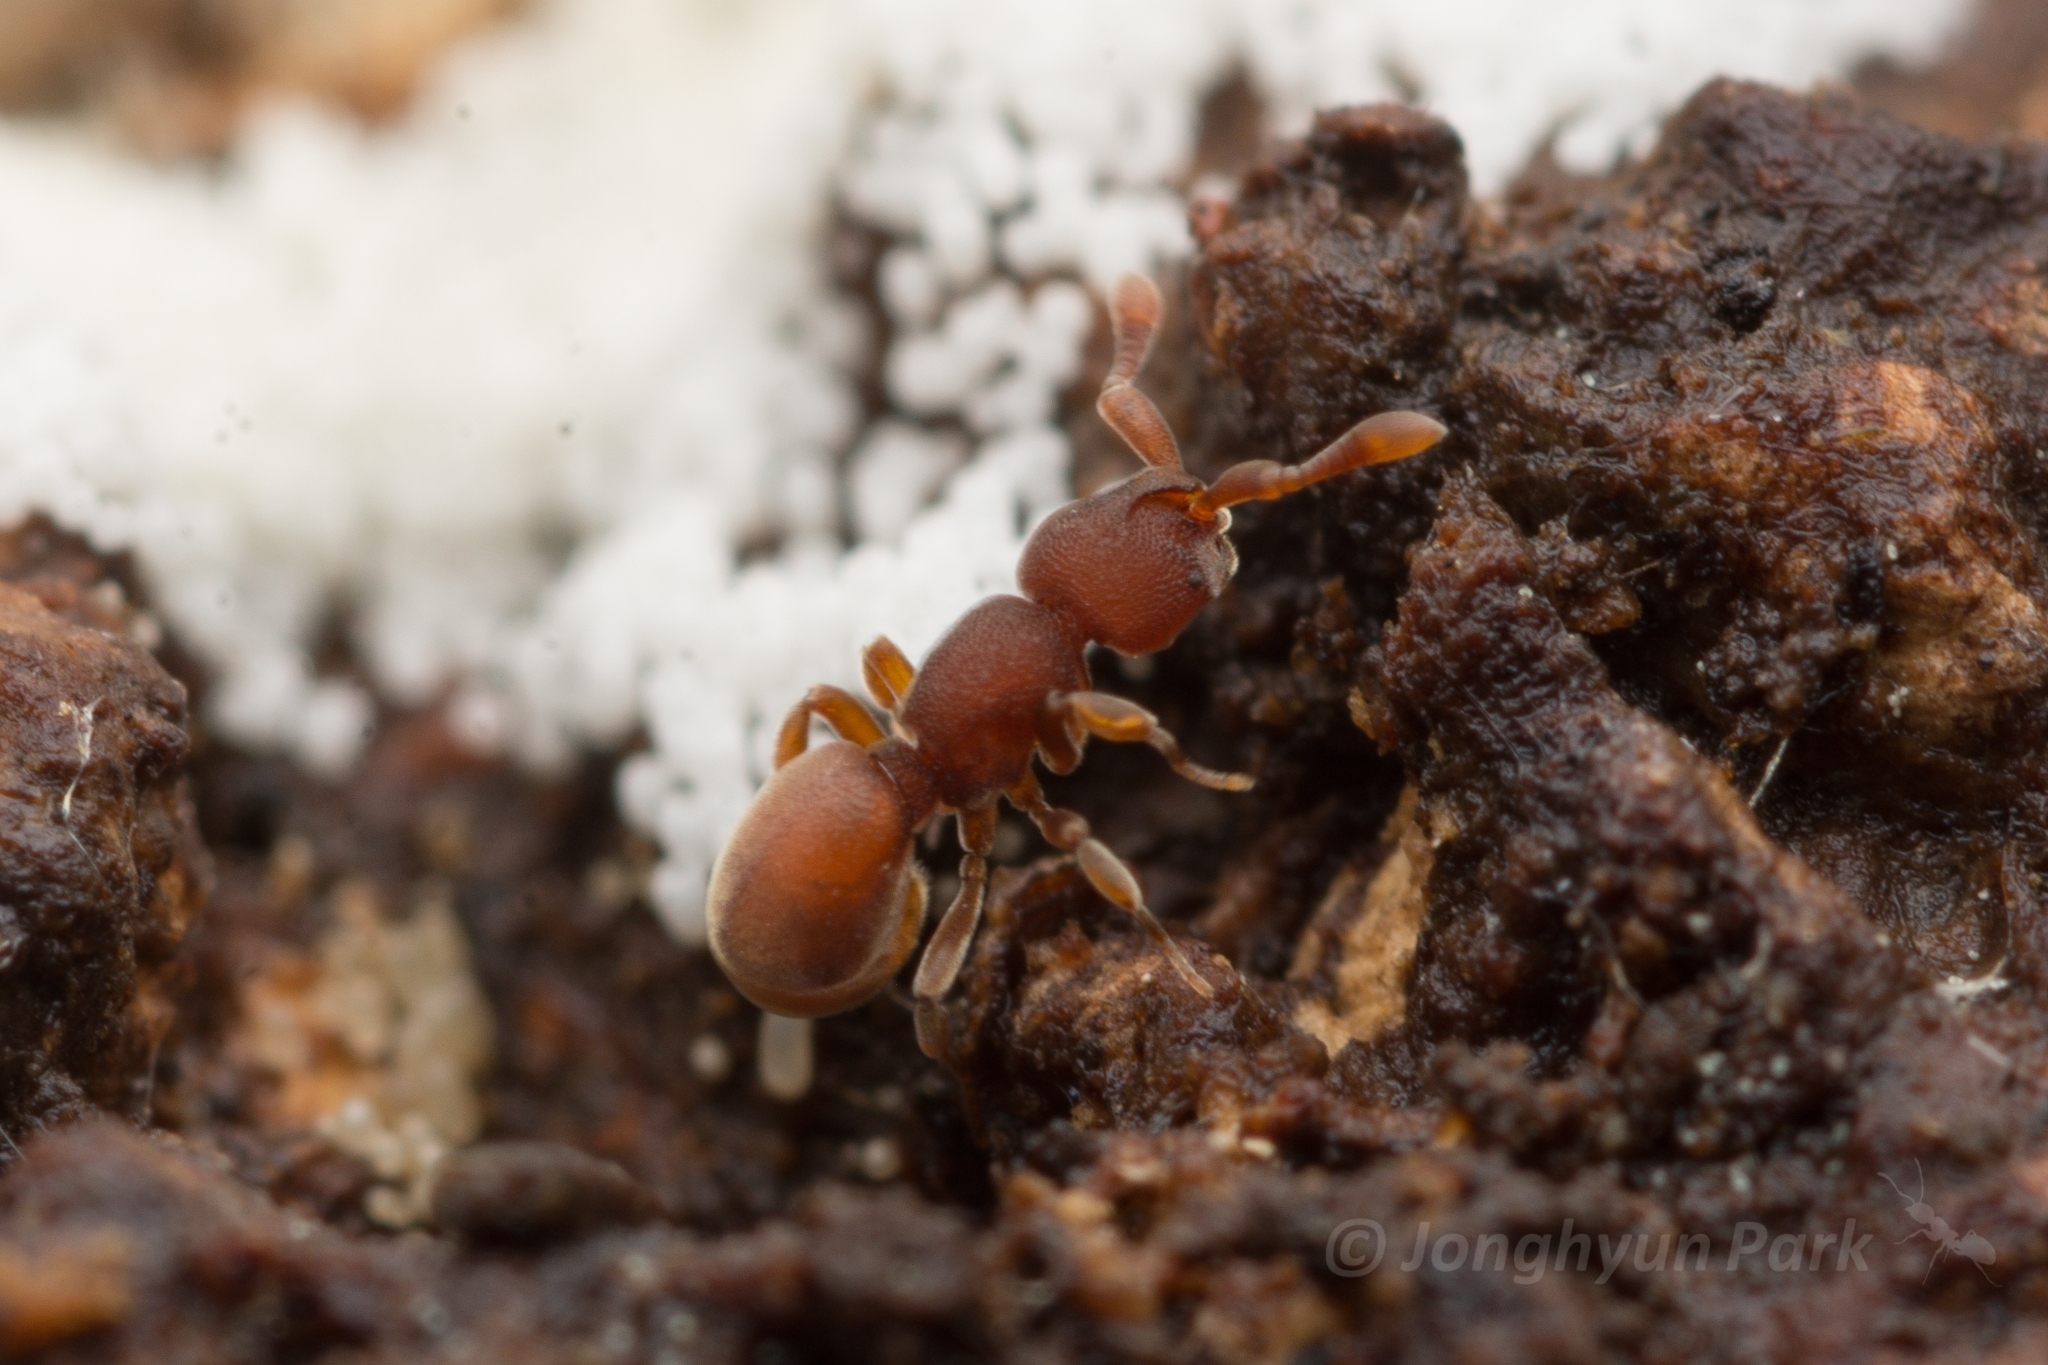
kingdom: Animalia
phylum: Arthropoda
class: Insecta
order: Hymenoptera
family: Formicidae
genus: Discothyrea
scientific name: Discothyrea sauteri
